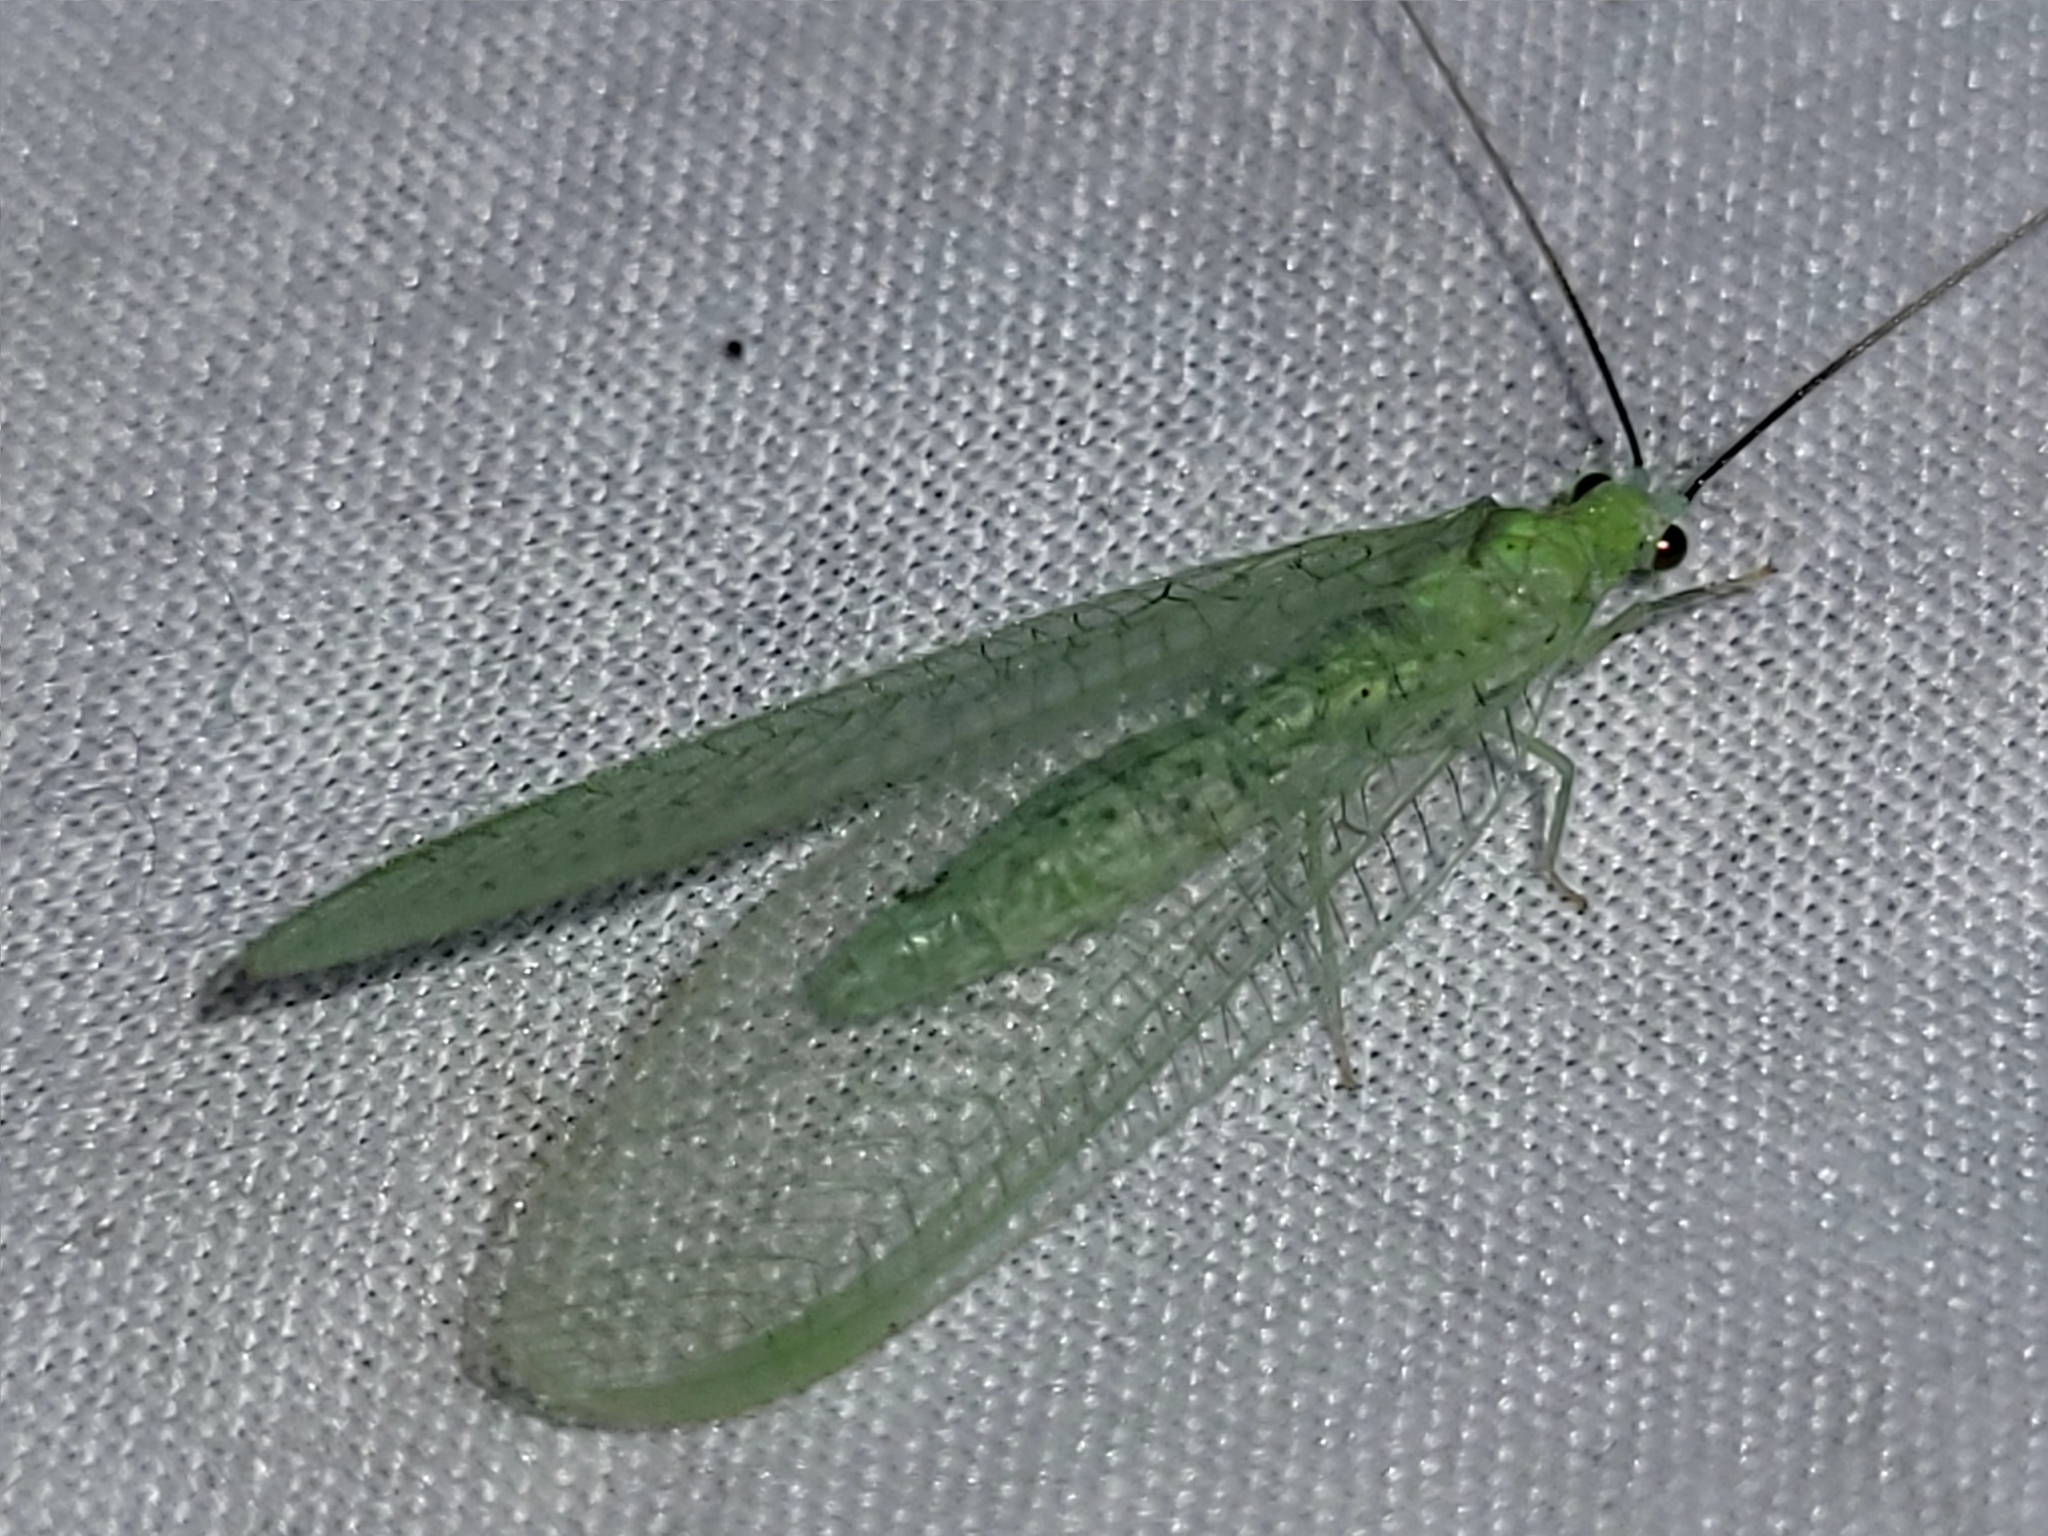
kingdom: Animalia
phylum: Arthropoda
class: Insecta
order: Neuroptera
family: Chrysopidae
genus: Chrysopa
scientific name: Chrysopa nigricornis
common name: Black-horned green lacewing
